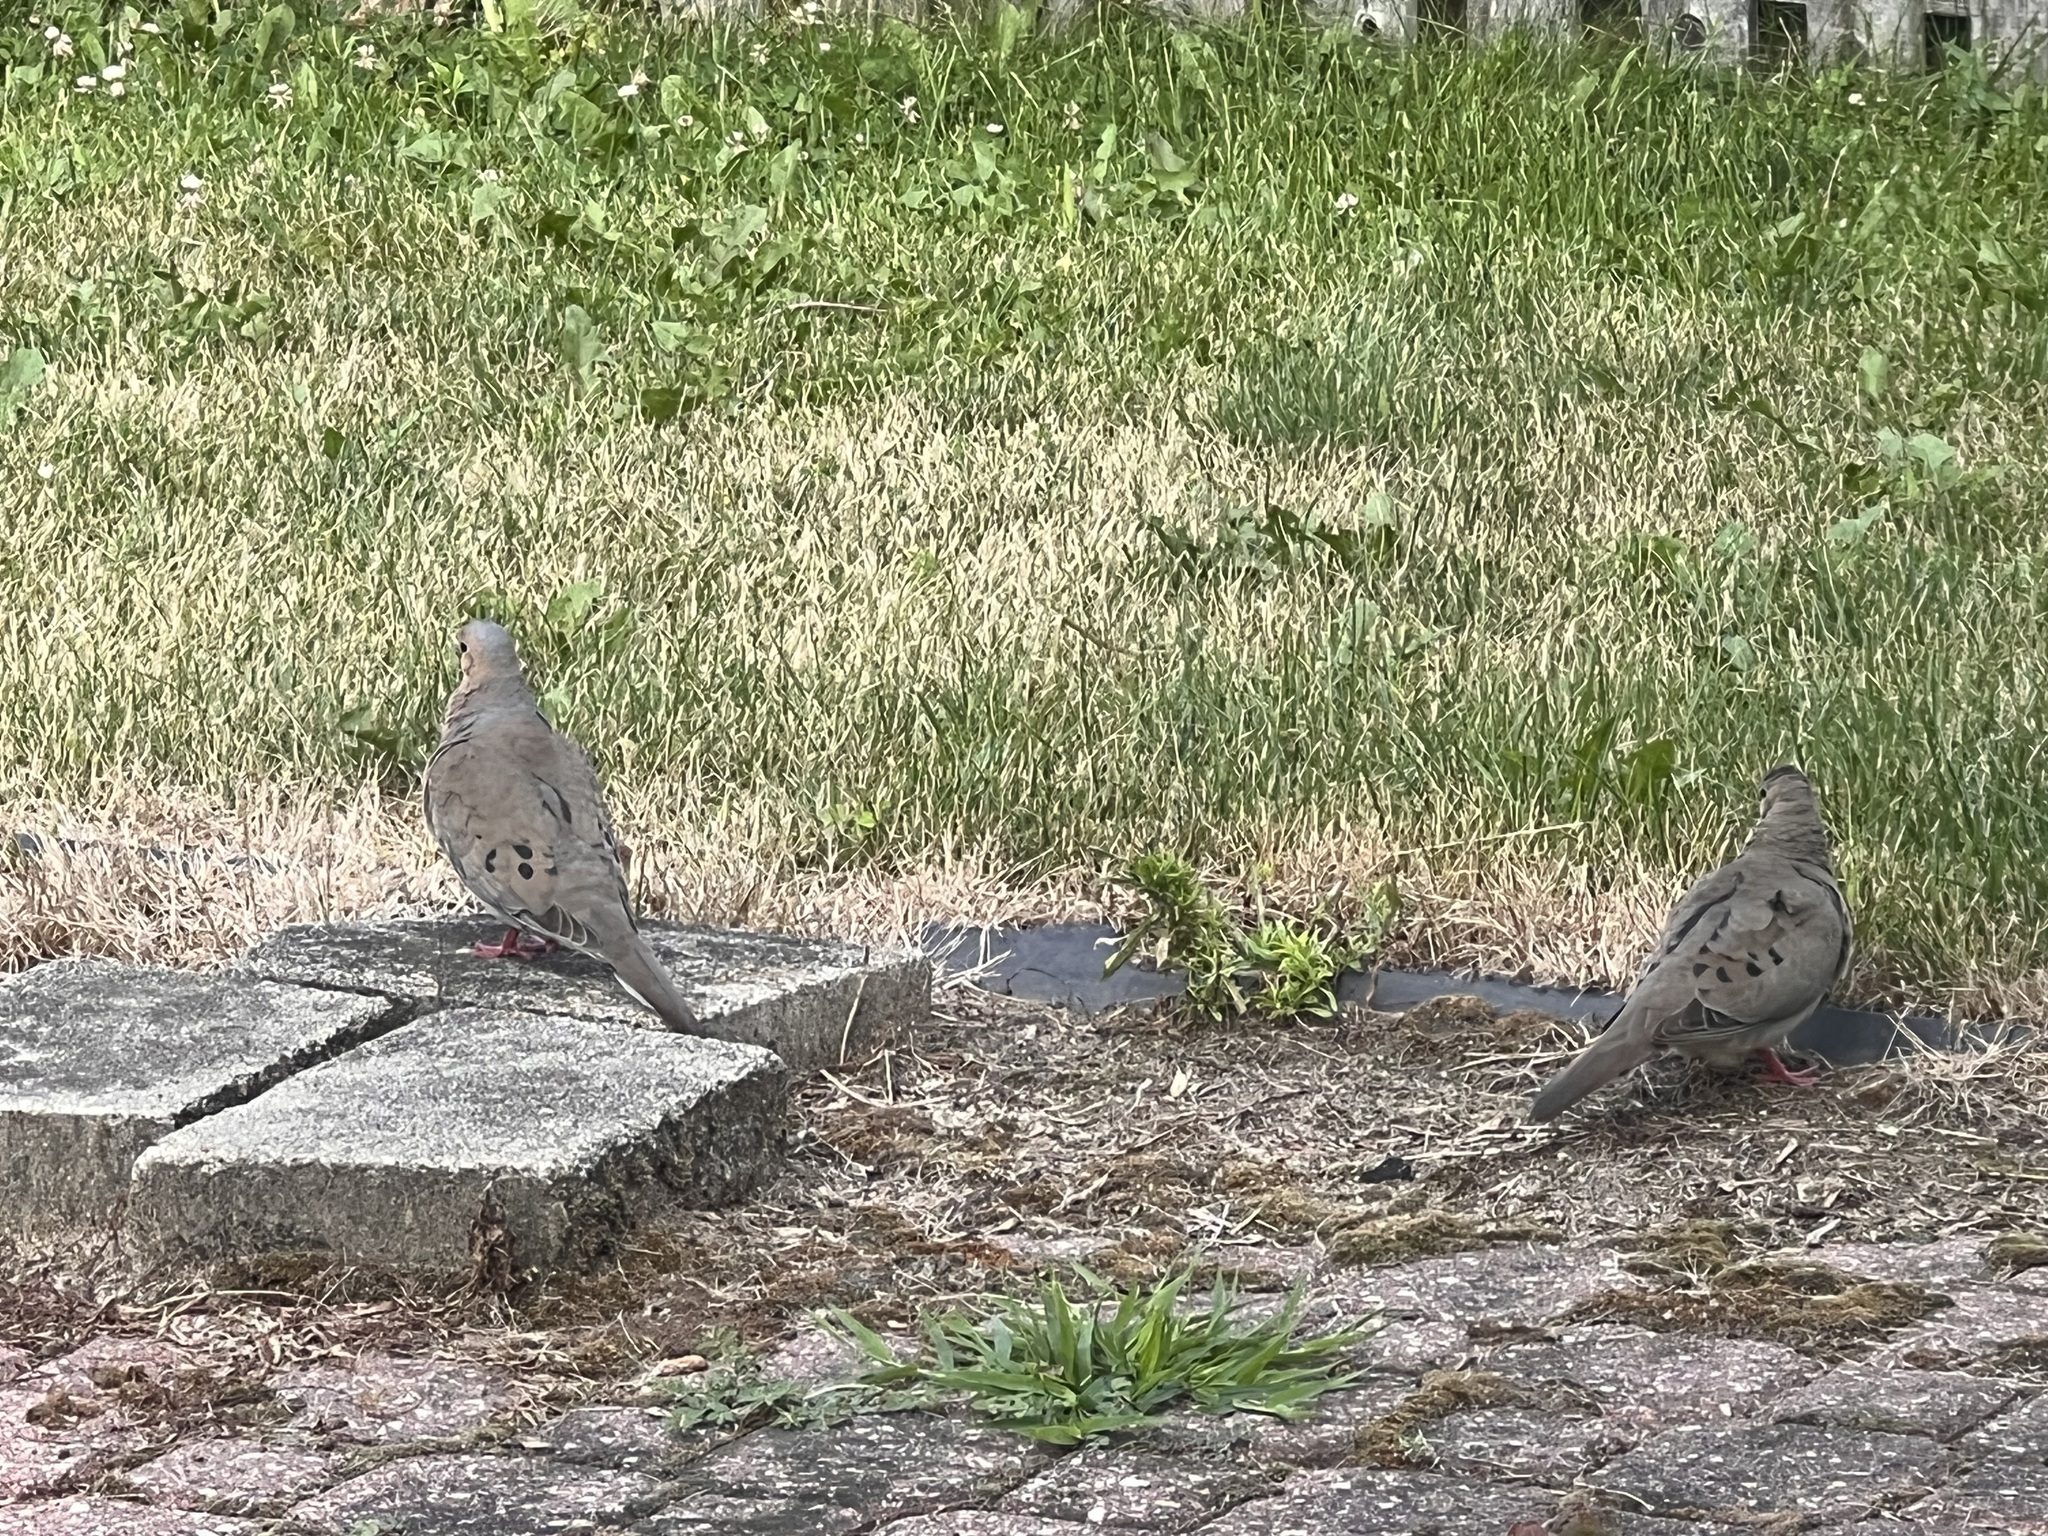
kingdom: Animalia
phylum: Chordata
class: Aves
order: Columbiformes
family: Columbidae
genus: Zenaida
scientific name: Zenaida macroura
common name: Mourning dove
